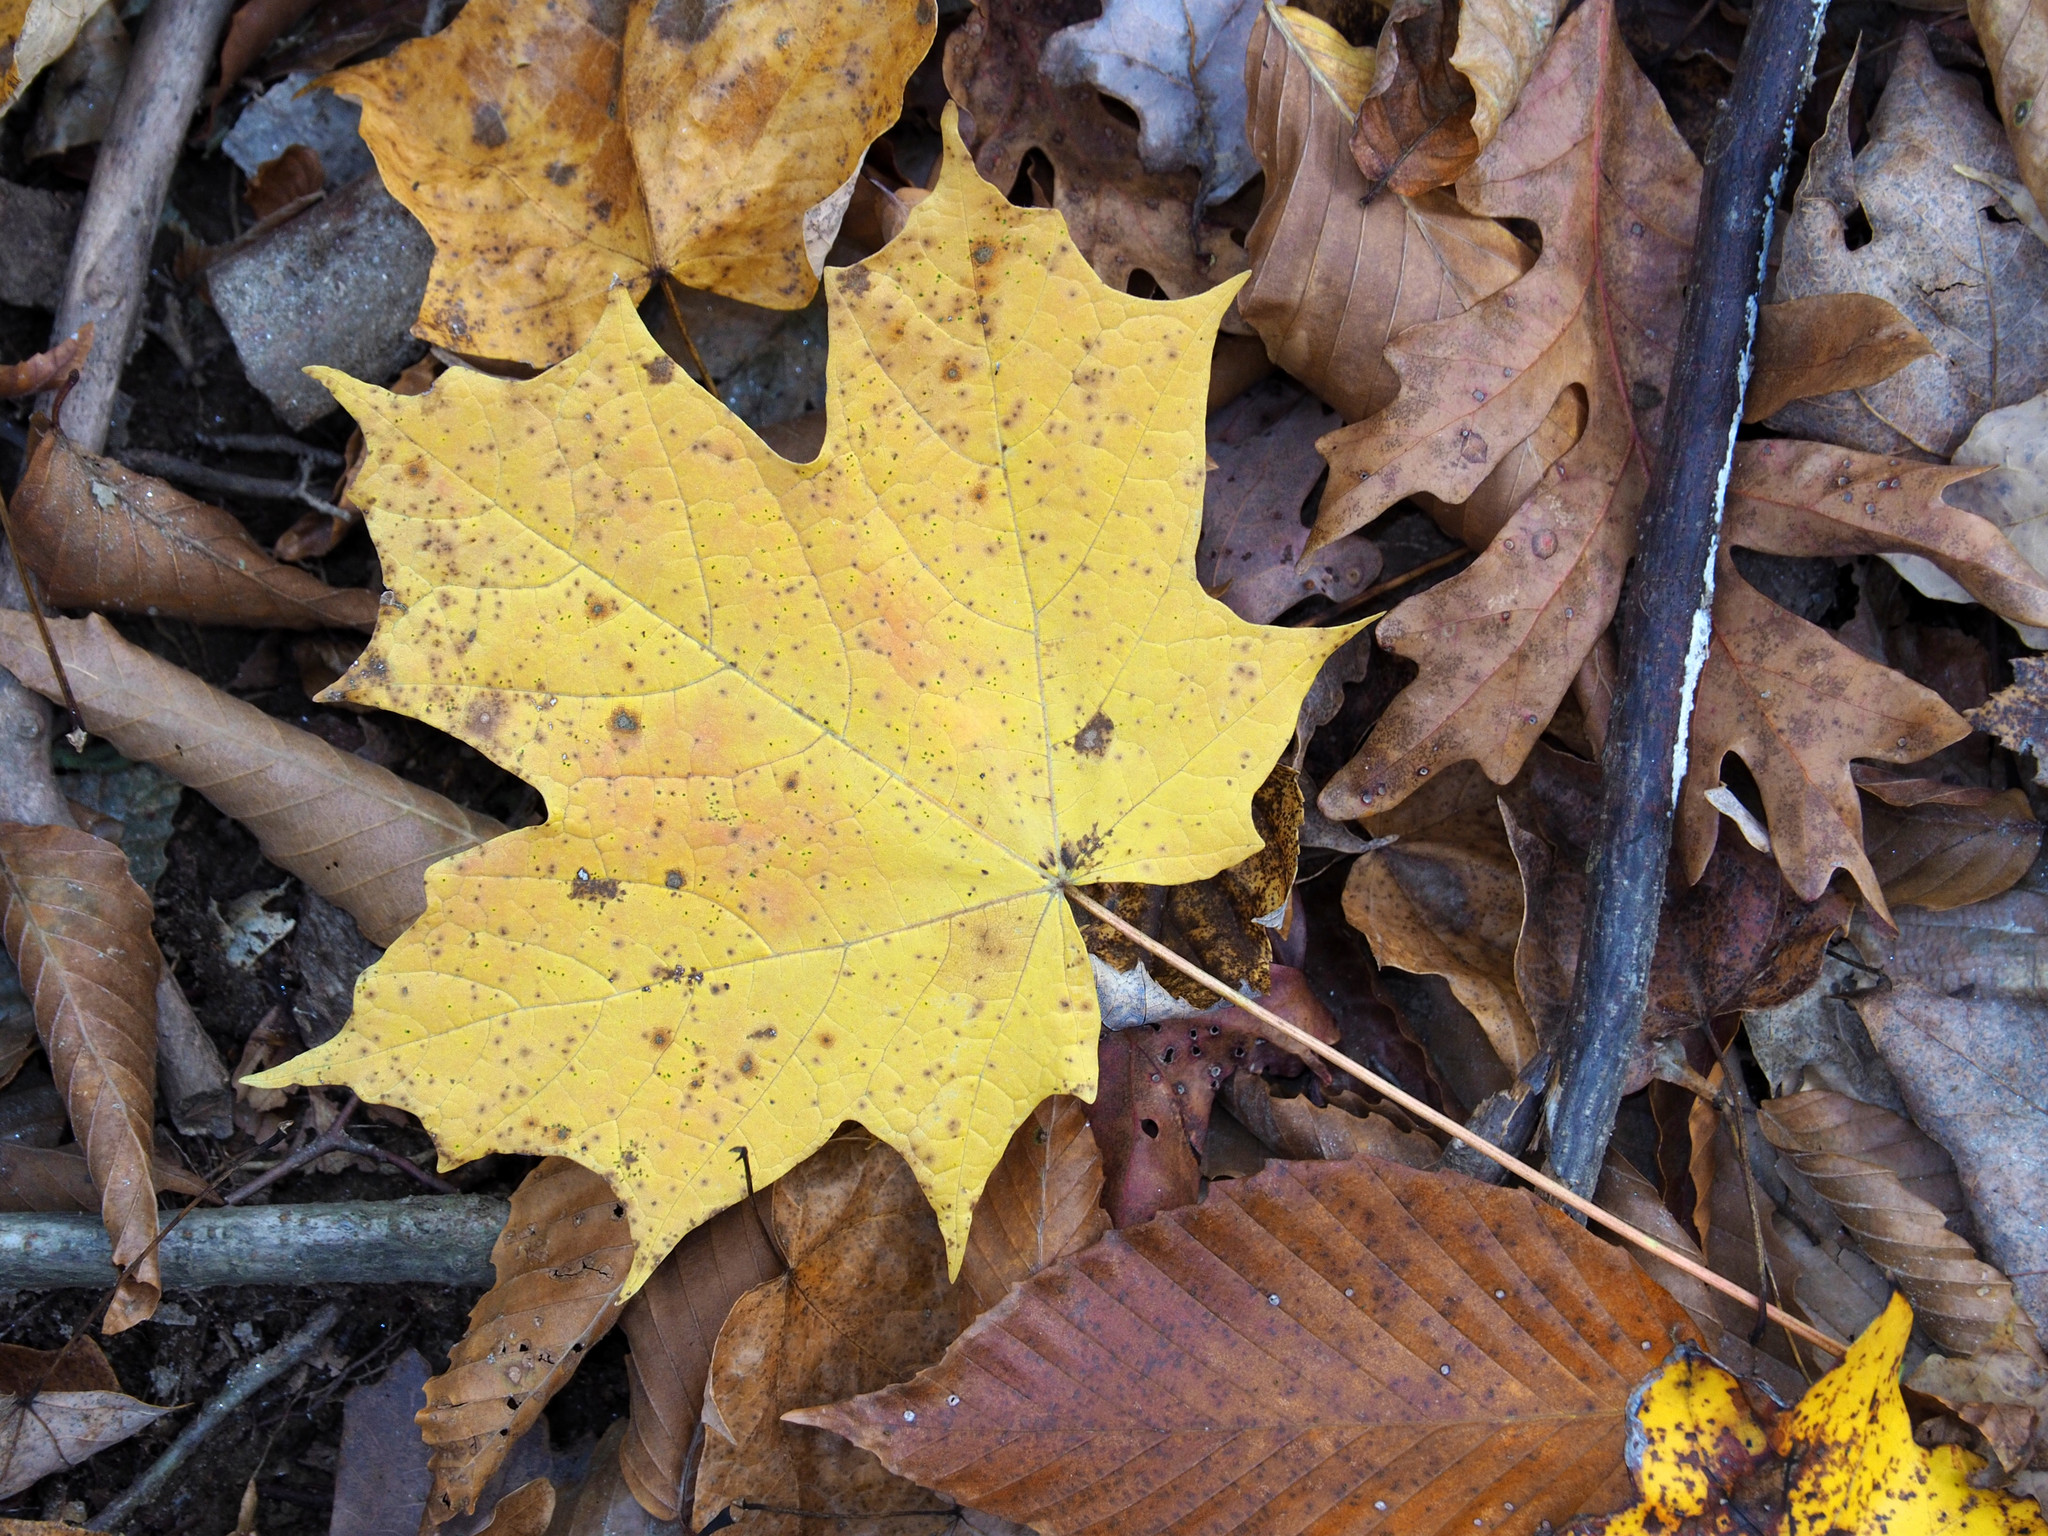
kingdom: Plantae
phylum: Tracheophyta
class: Magnoliopsida
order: Sapindales
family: Sapindaceae
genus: Acer
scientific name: Acer saccharum
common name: Sugar maple
